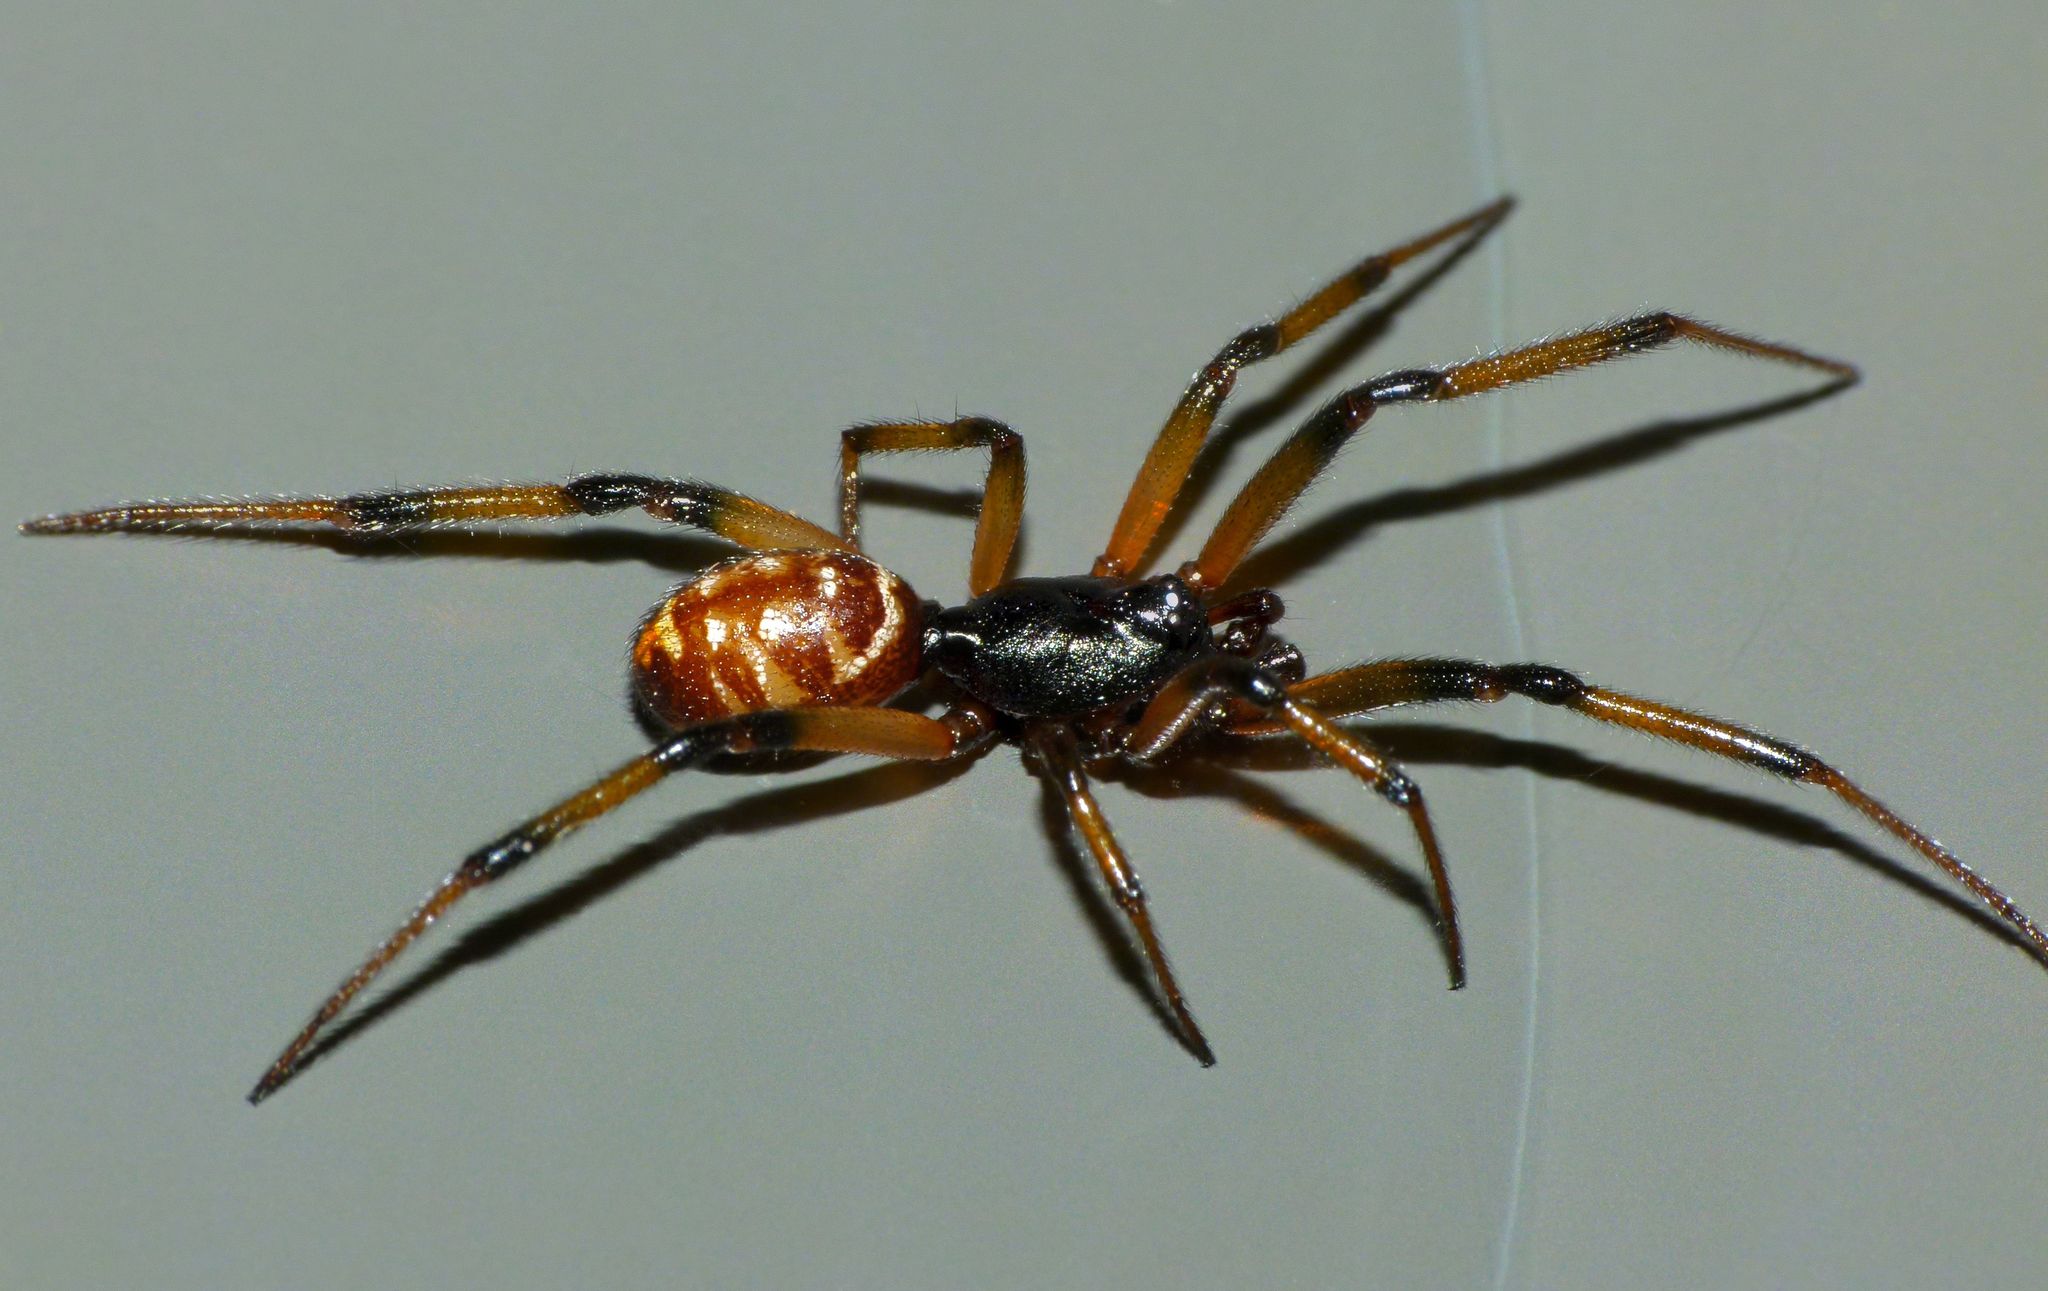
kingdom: Animalia
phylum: Arthropoda
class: Arachnida
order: Araneae
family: Theridiidae
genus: Steatoda
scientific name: Steatoda capensis
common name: Cobweb weaver
